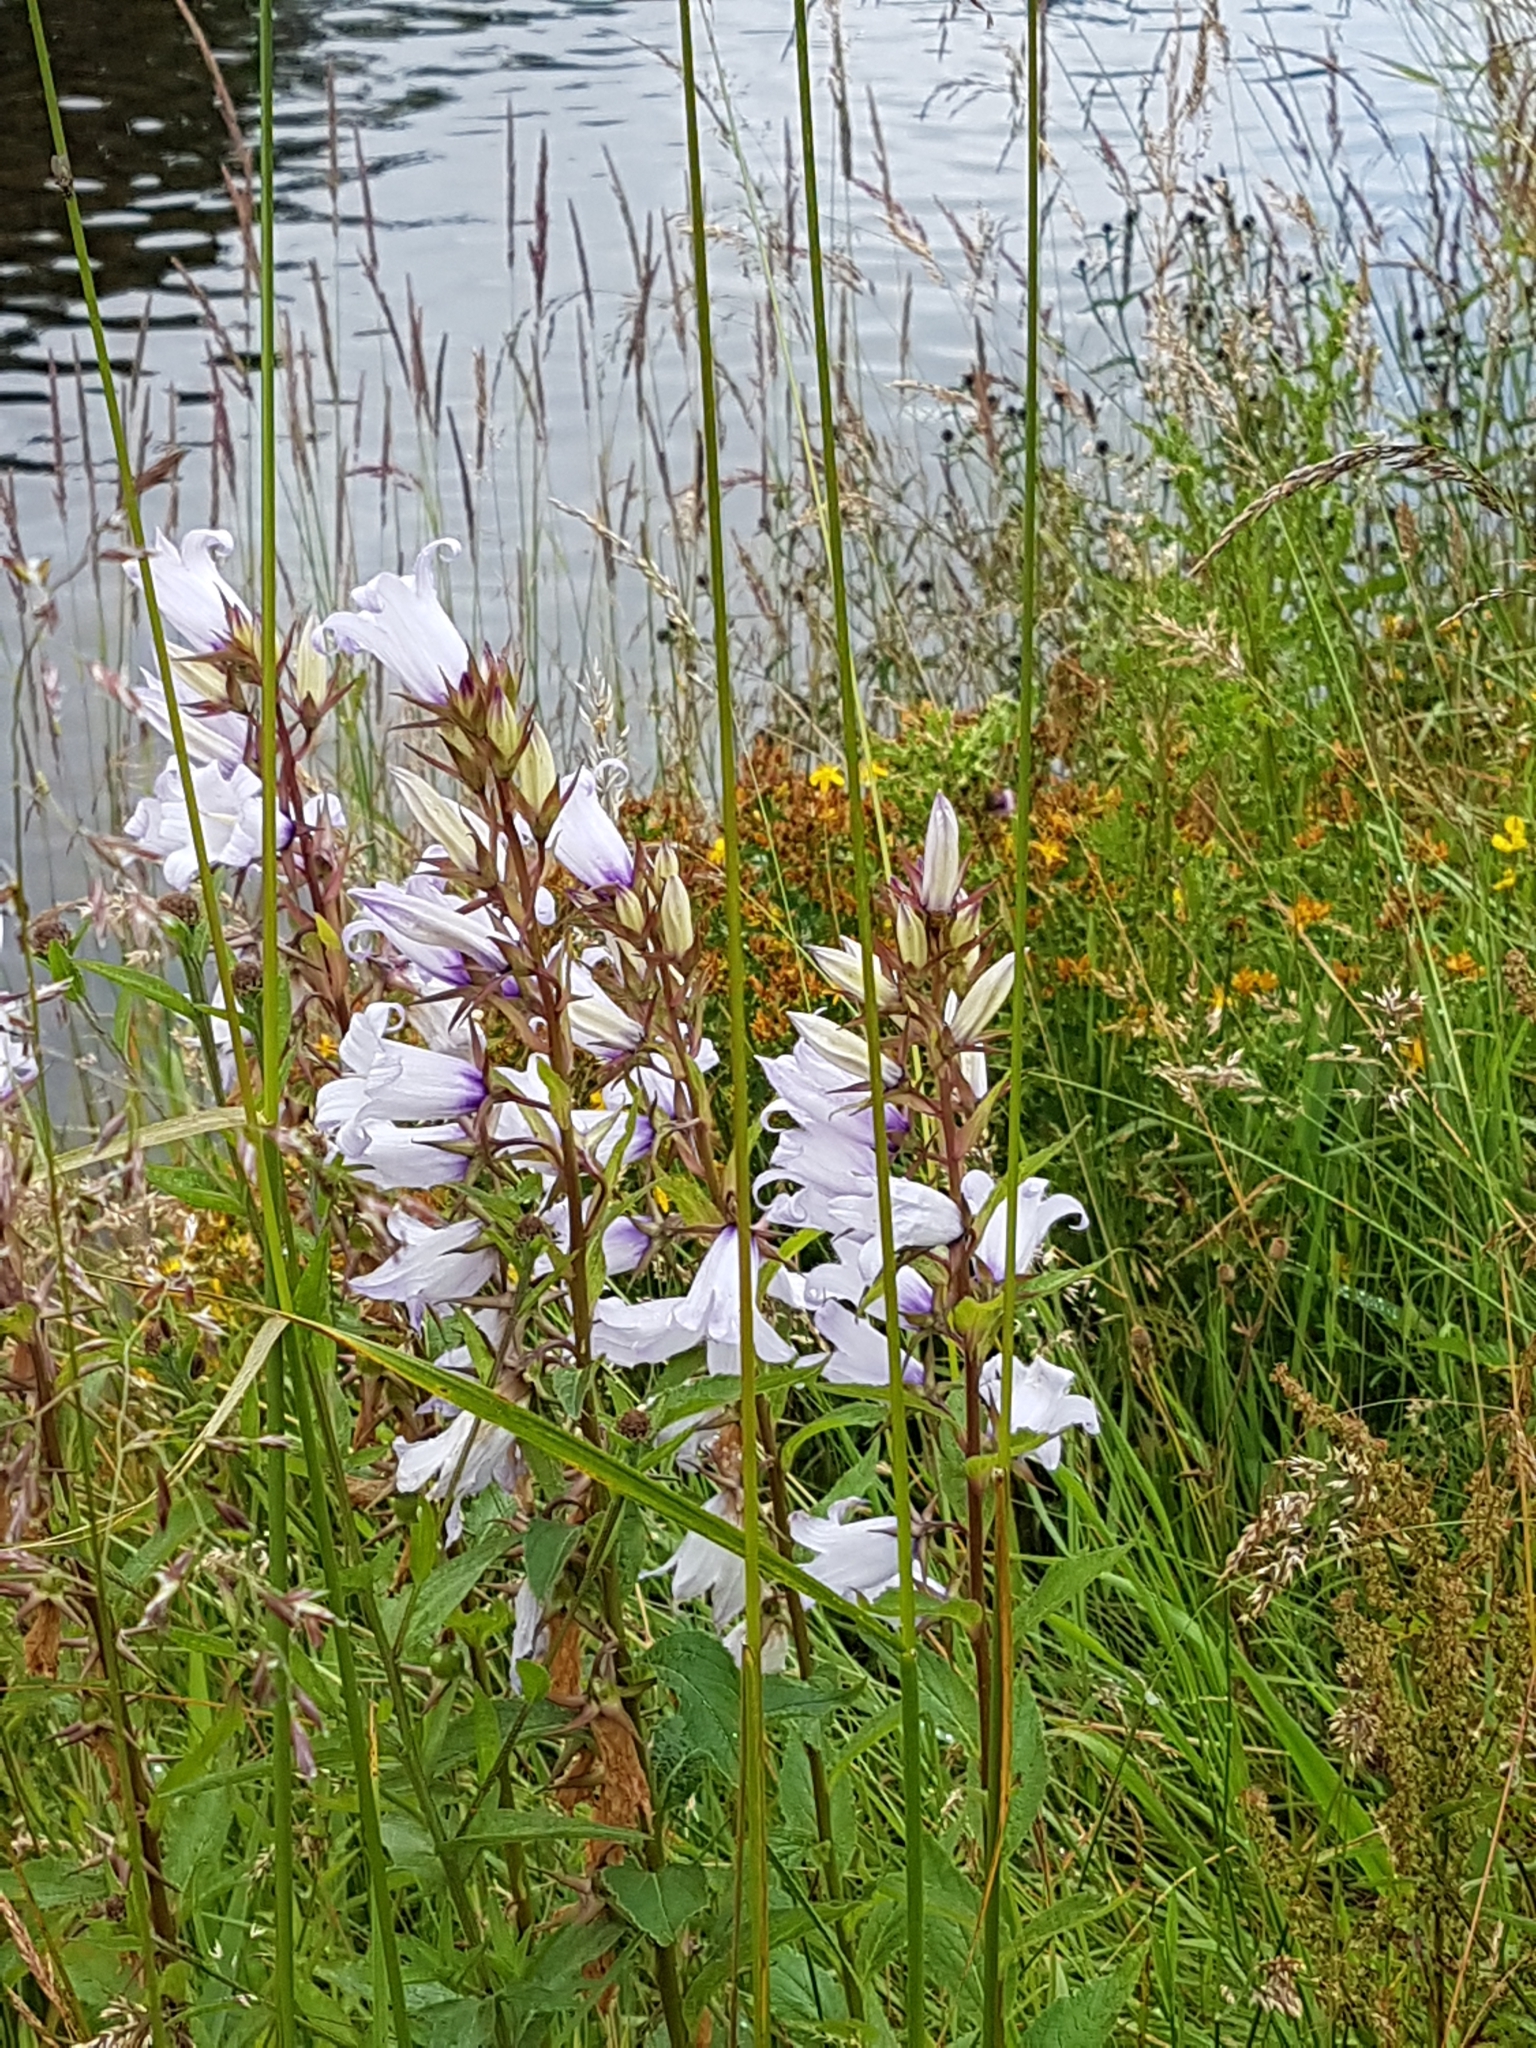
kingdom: Plantae
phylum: Tracheophyta
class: Magnoliopsida
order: Asterales
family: Campanulaceae
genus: Campanula
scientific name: Campanula latifolia
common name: Giant bellflower
